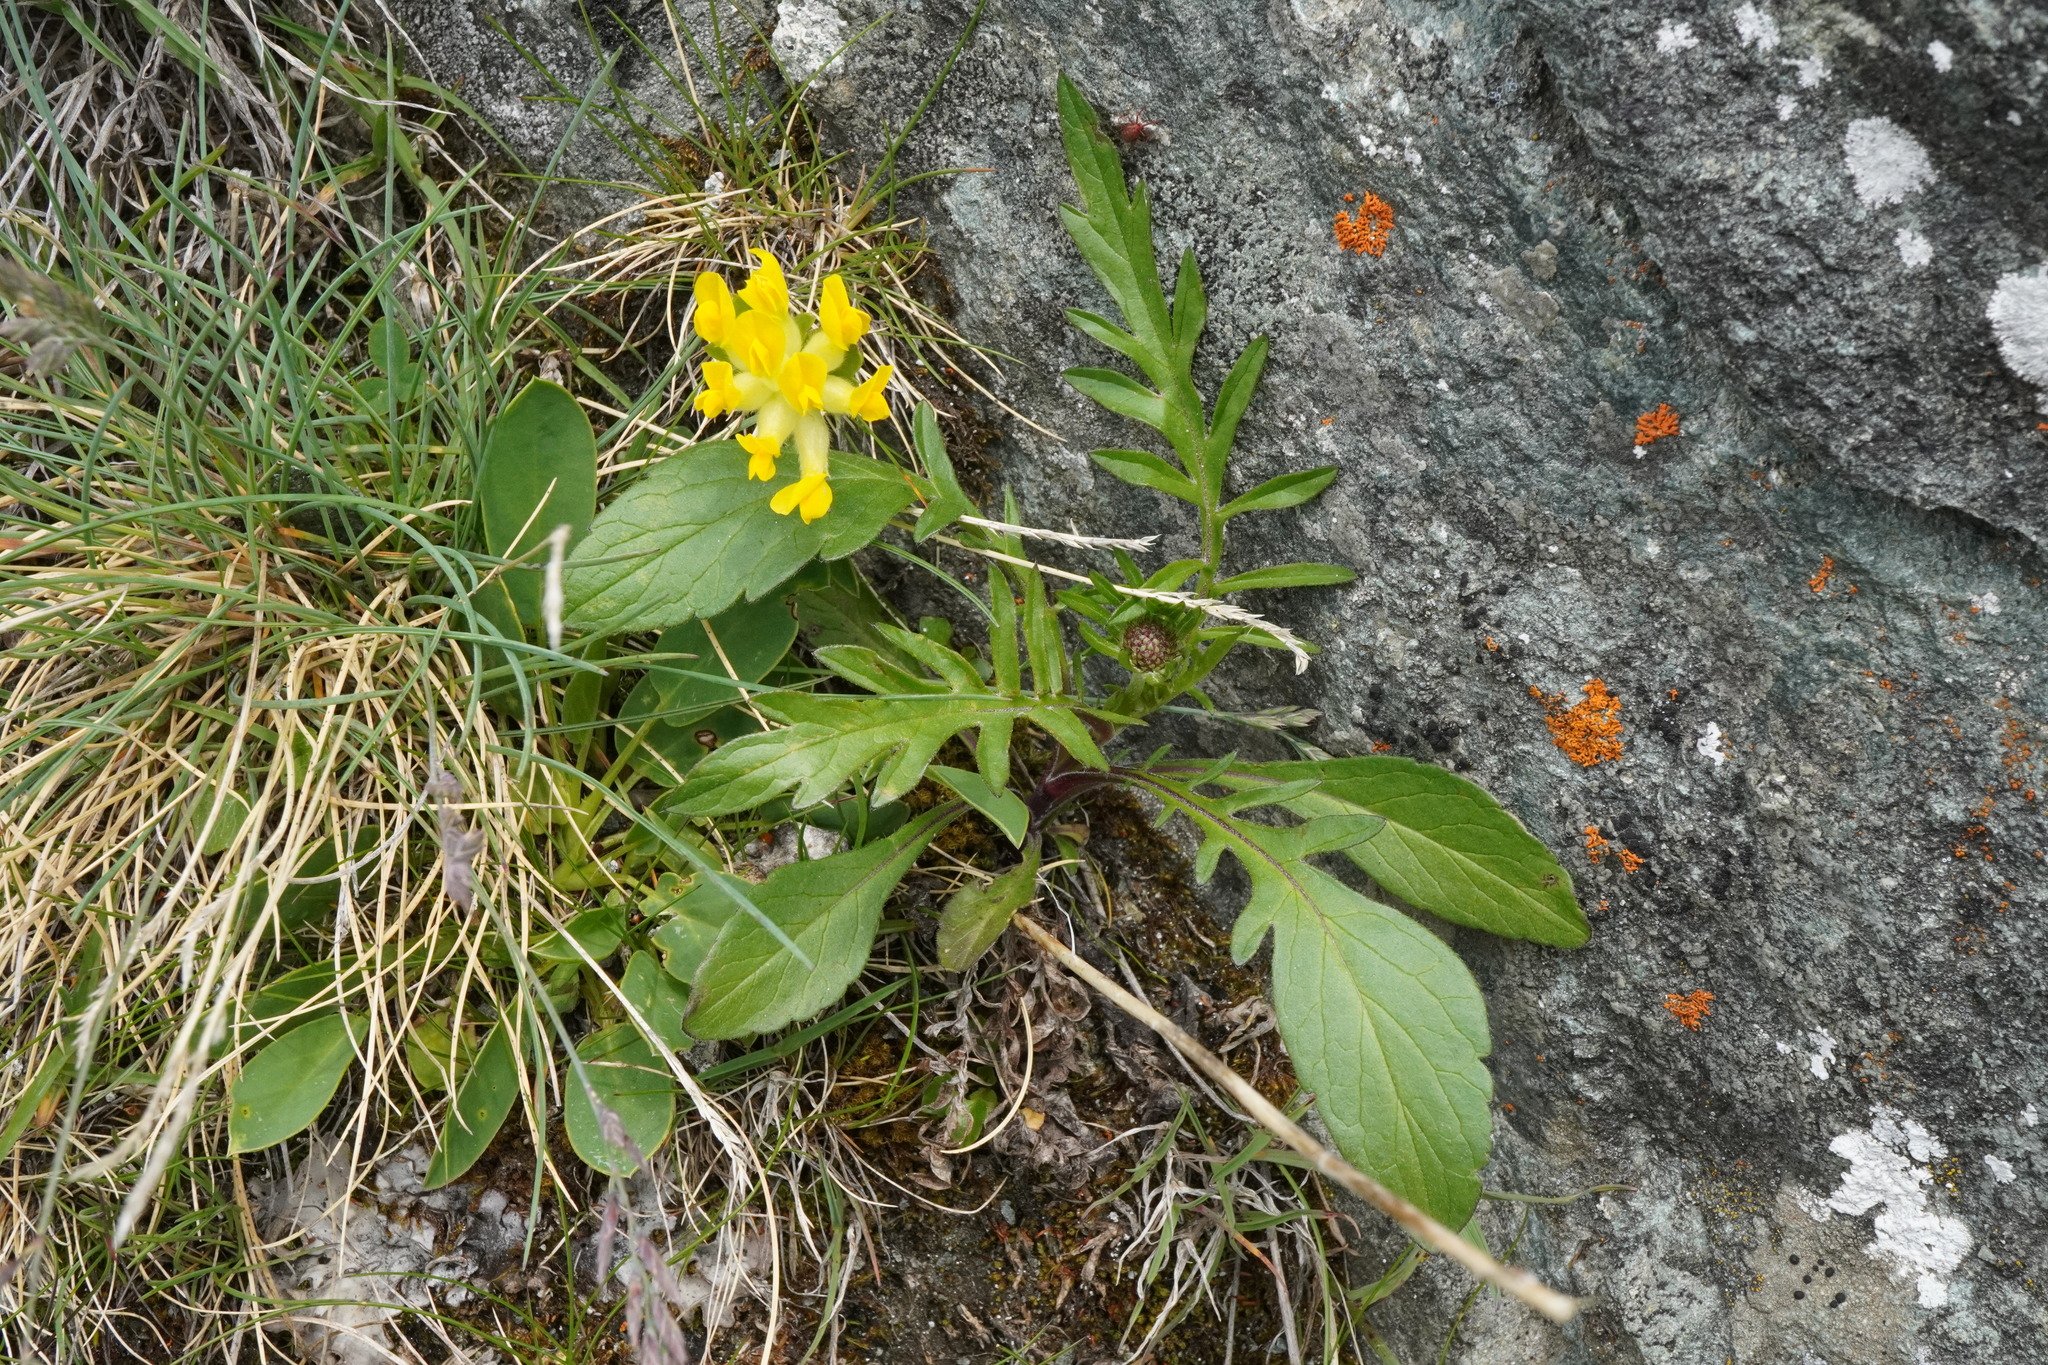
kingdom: Plantae
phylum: Tracheophyta
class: Magnoliopsida
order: Dipsacales
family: Caprifoliaceae
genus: Scabiosa
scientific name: Scabiosa lucida
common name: Shining scabious
